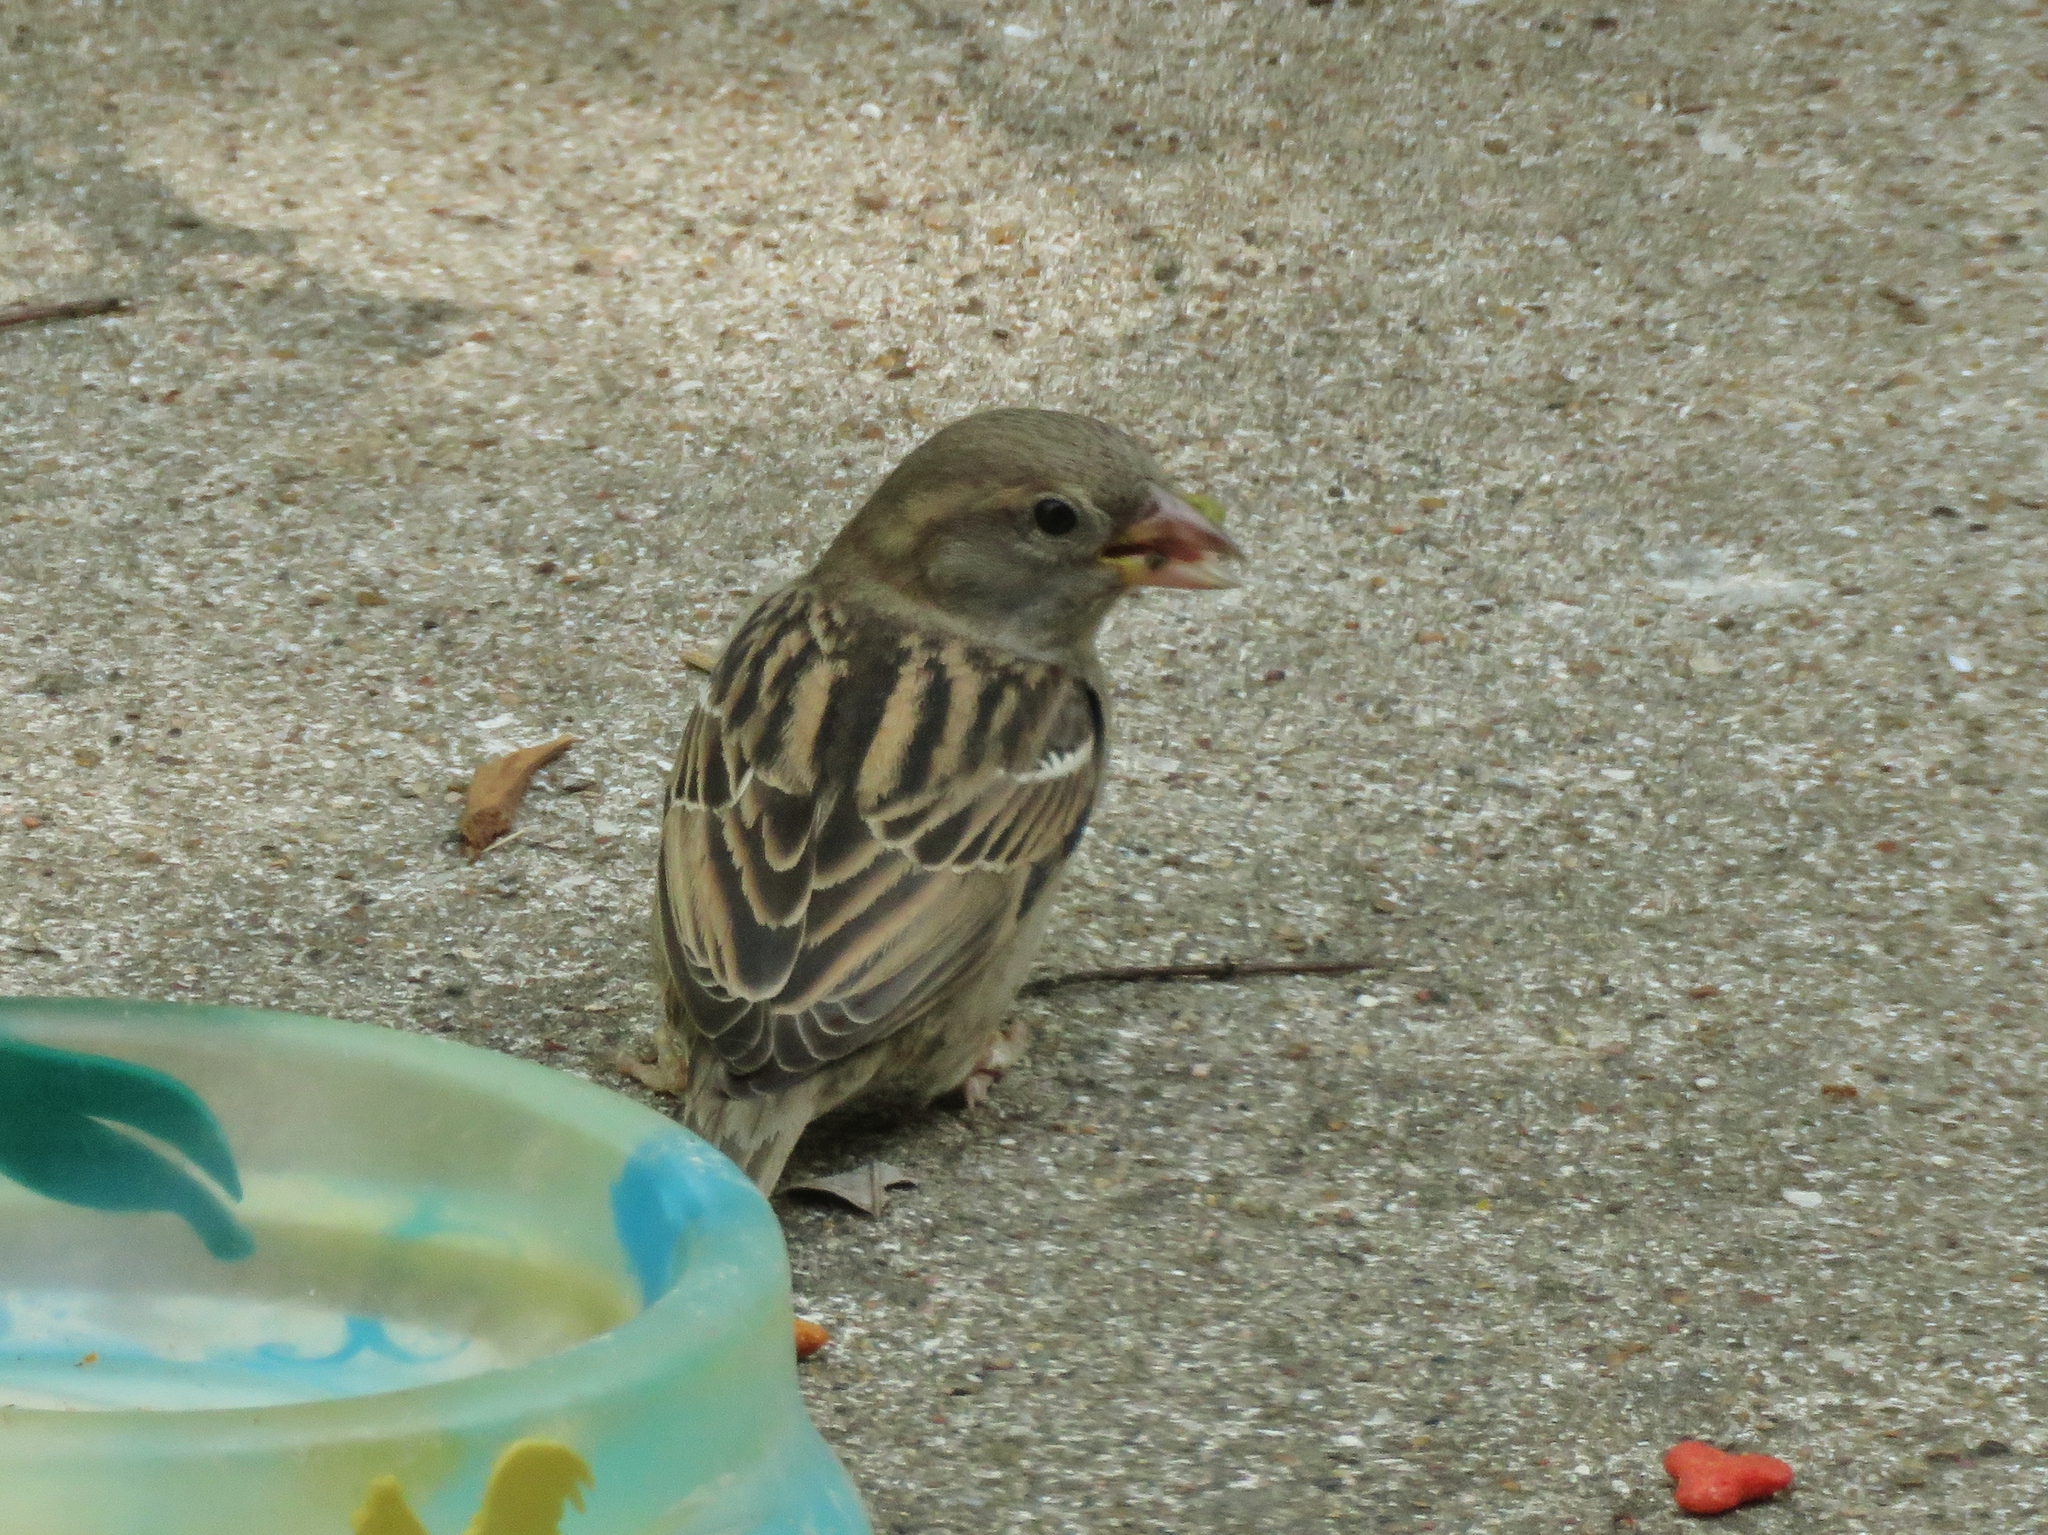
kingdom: Animalia
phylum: Chordata
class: Aves
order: Passeriformes
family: Passeridae
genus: Passer
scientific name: Passer domesticus
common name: House sparrow
